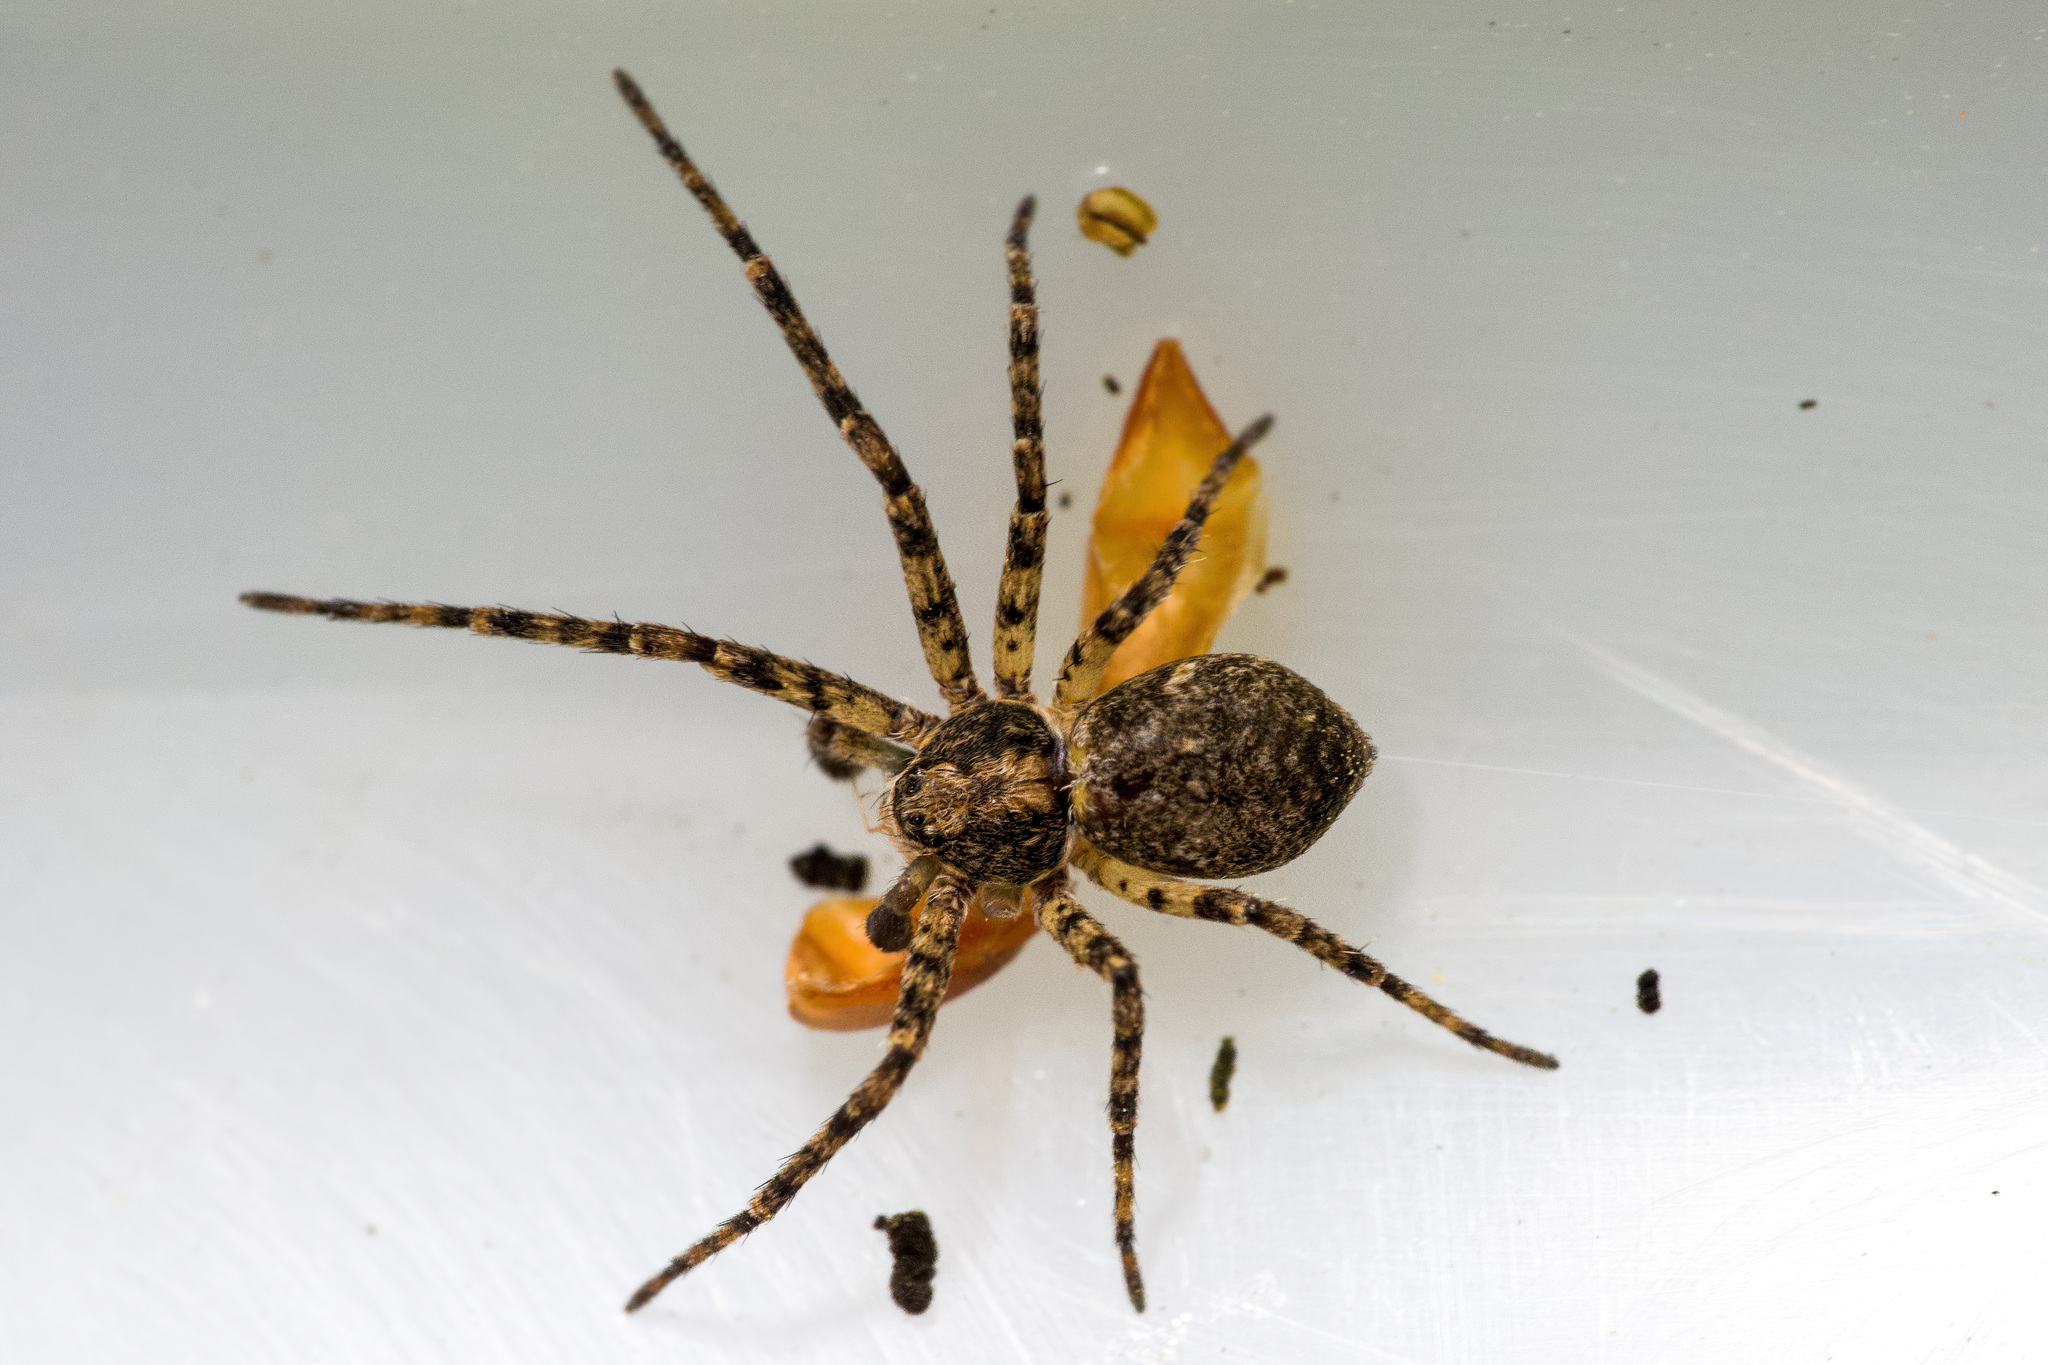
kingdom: Animalia
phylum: Arthropoda
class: Arachnida
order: Araneae
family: Philodromidae
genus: Philodromus
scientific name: Philodromus buxi
